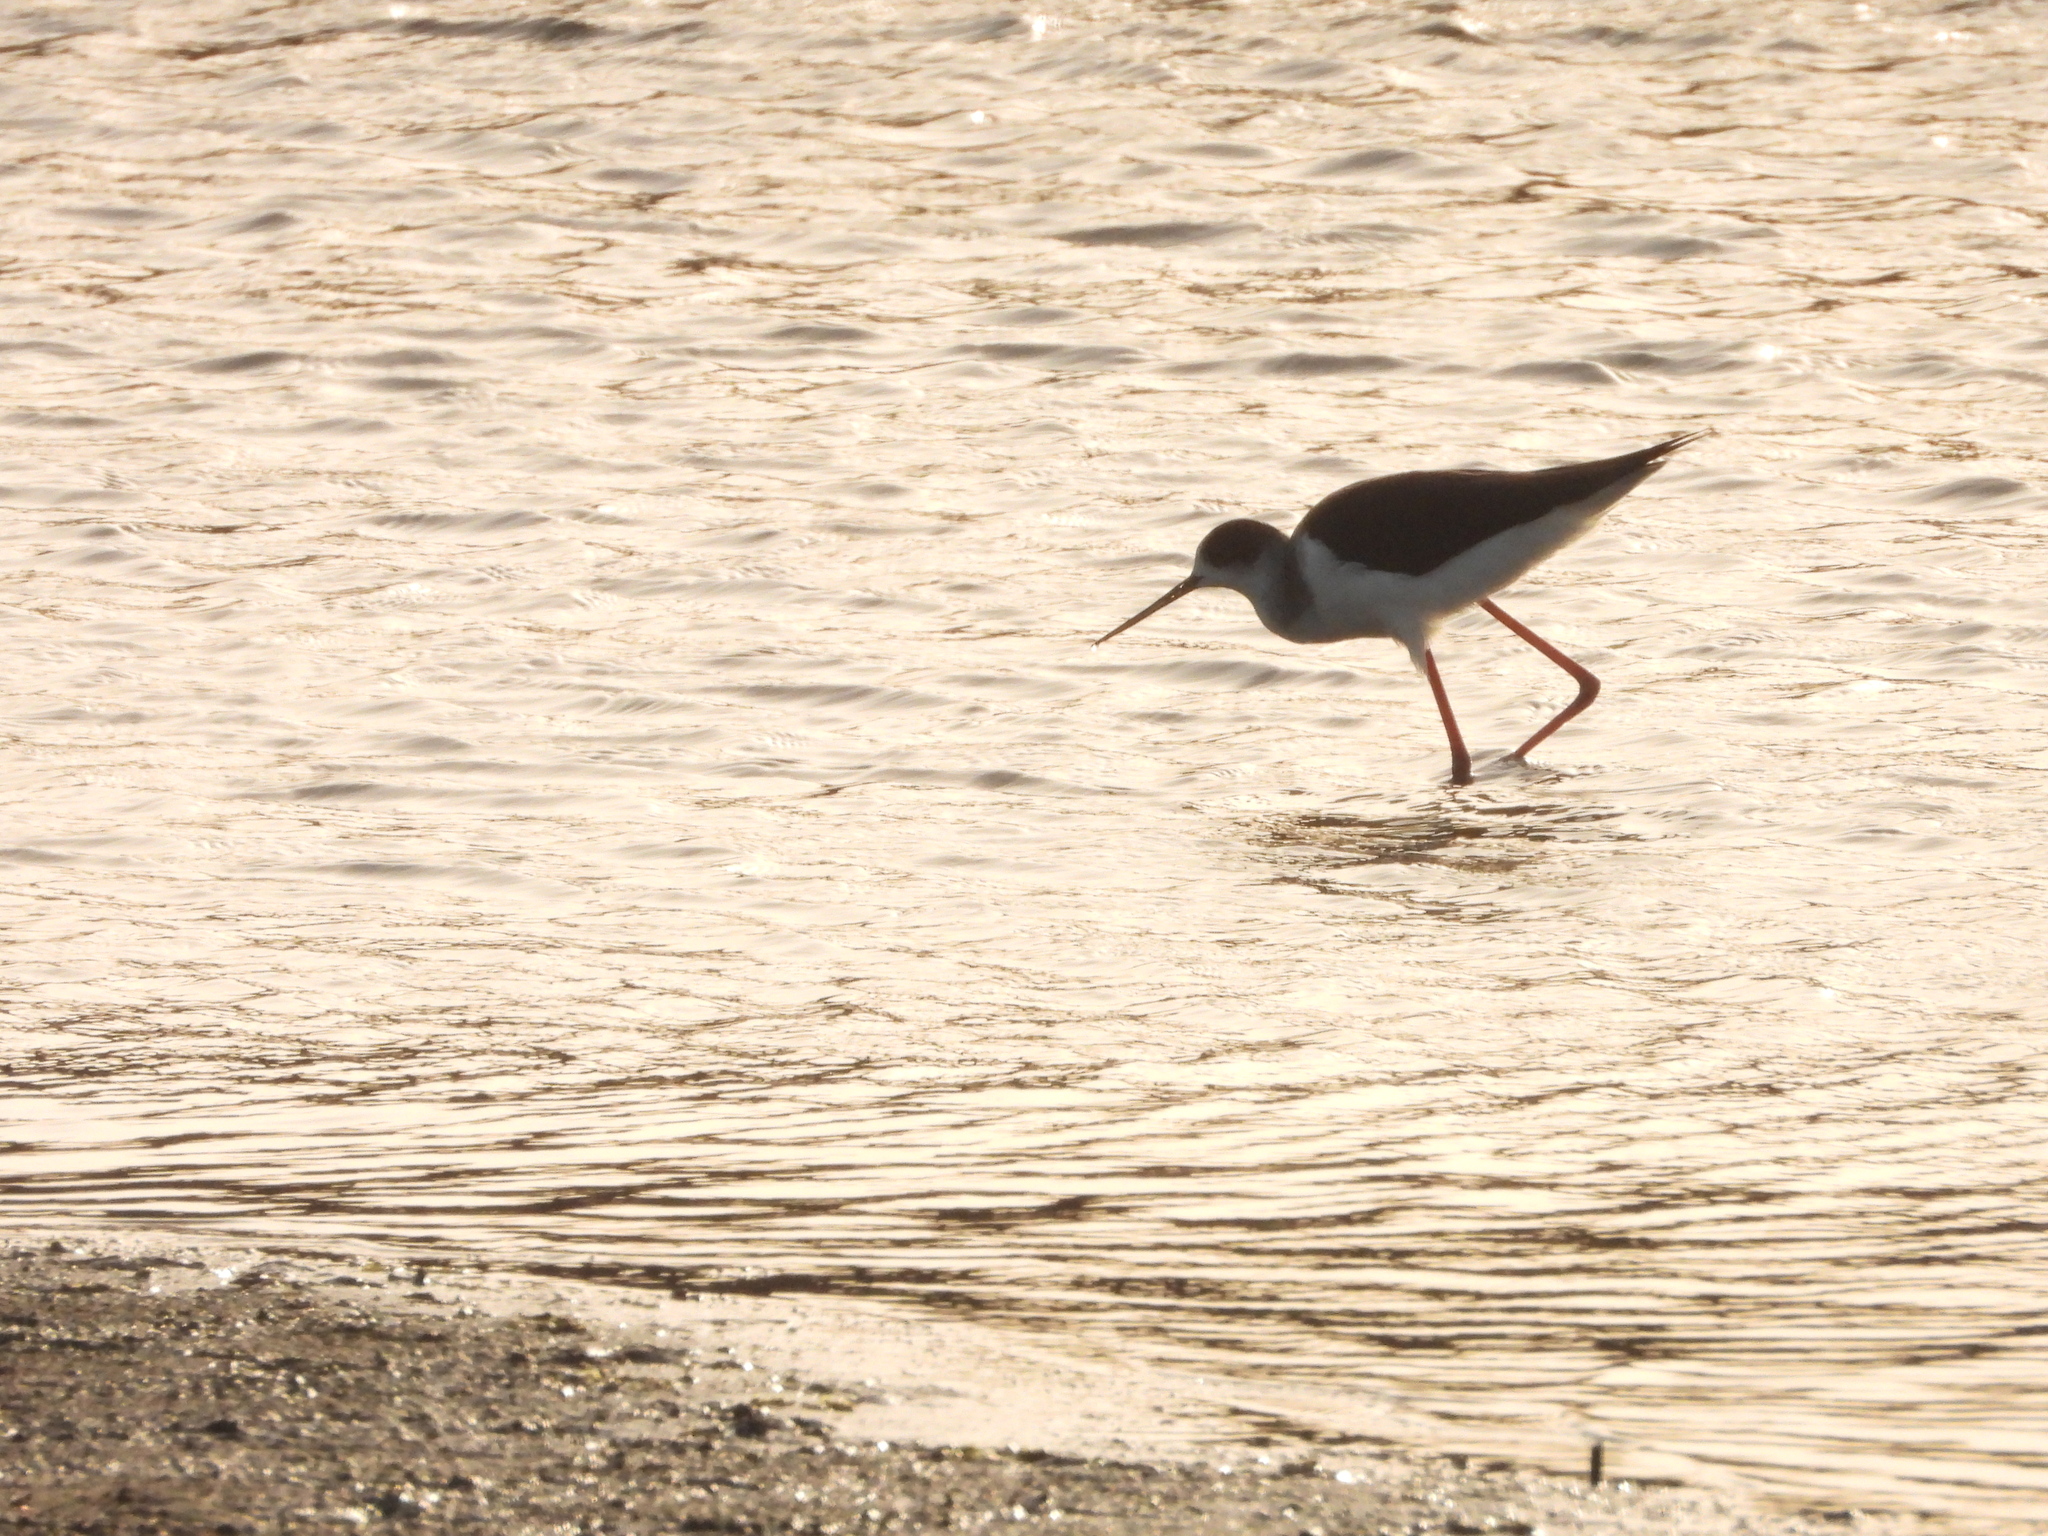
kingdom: Animalia
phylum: Chordata
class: Aves
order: Charadriiformes
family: Recurvirostridae
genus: Himantopus
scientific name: Himantopus himantopus
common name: Black-winged stilt
